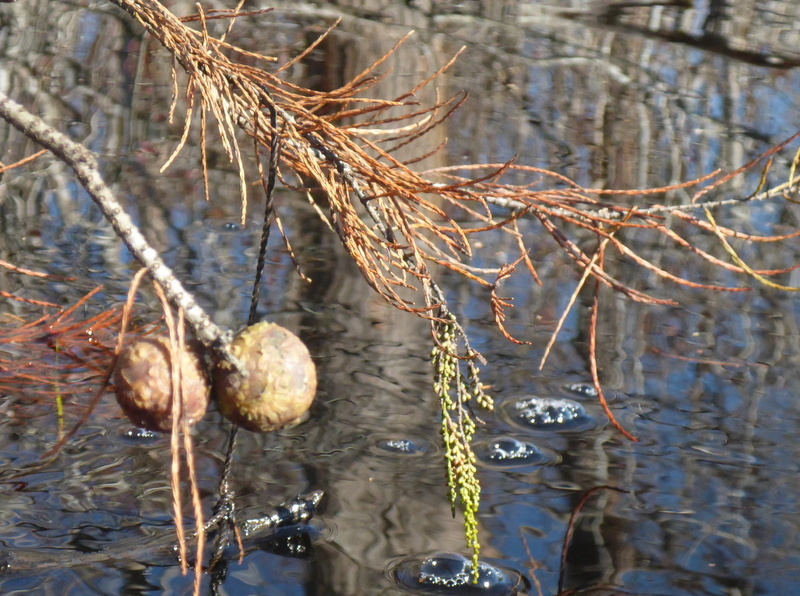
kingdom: Plantae
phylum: Tracheophyta
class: Pinopsida
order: Pinales
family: Cupressaceae
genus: Taxodium
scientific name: Taxodium distichum
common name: Bald cypress
